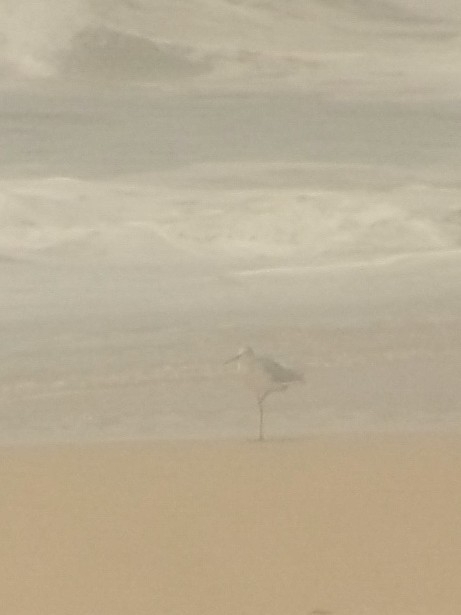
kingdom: Animalia
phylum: Chordata
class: Aves
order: Charadriiformes
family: Scolopacidae
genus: Tringa
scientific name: Tringa nebularia
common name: Common greenshank
